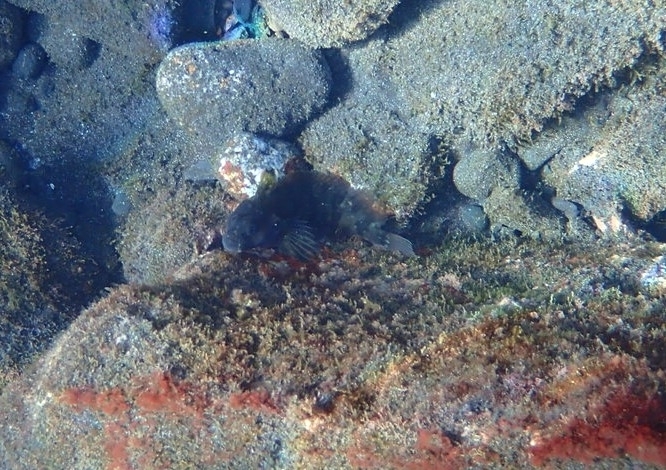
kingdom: Animalia
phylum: Chordata
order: Perciformes
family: Labrisomidae
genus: Labrisomus
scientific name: Labrisomus nuchipinnis
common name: Hairy blenny
